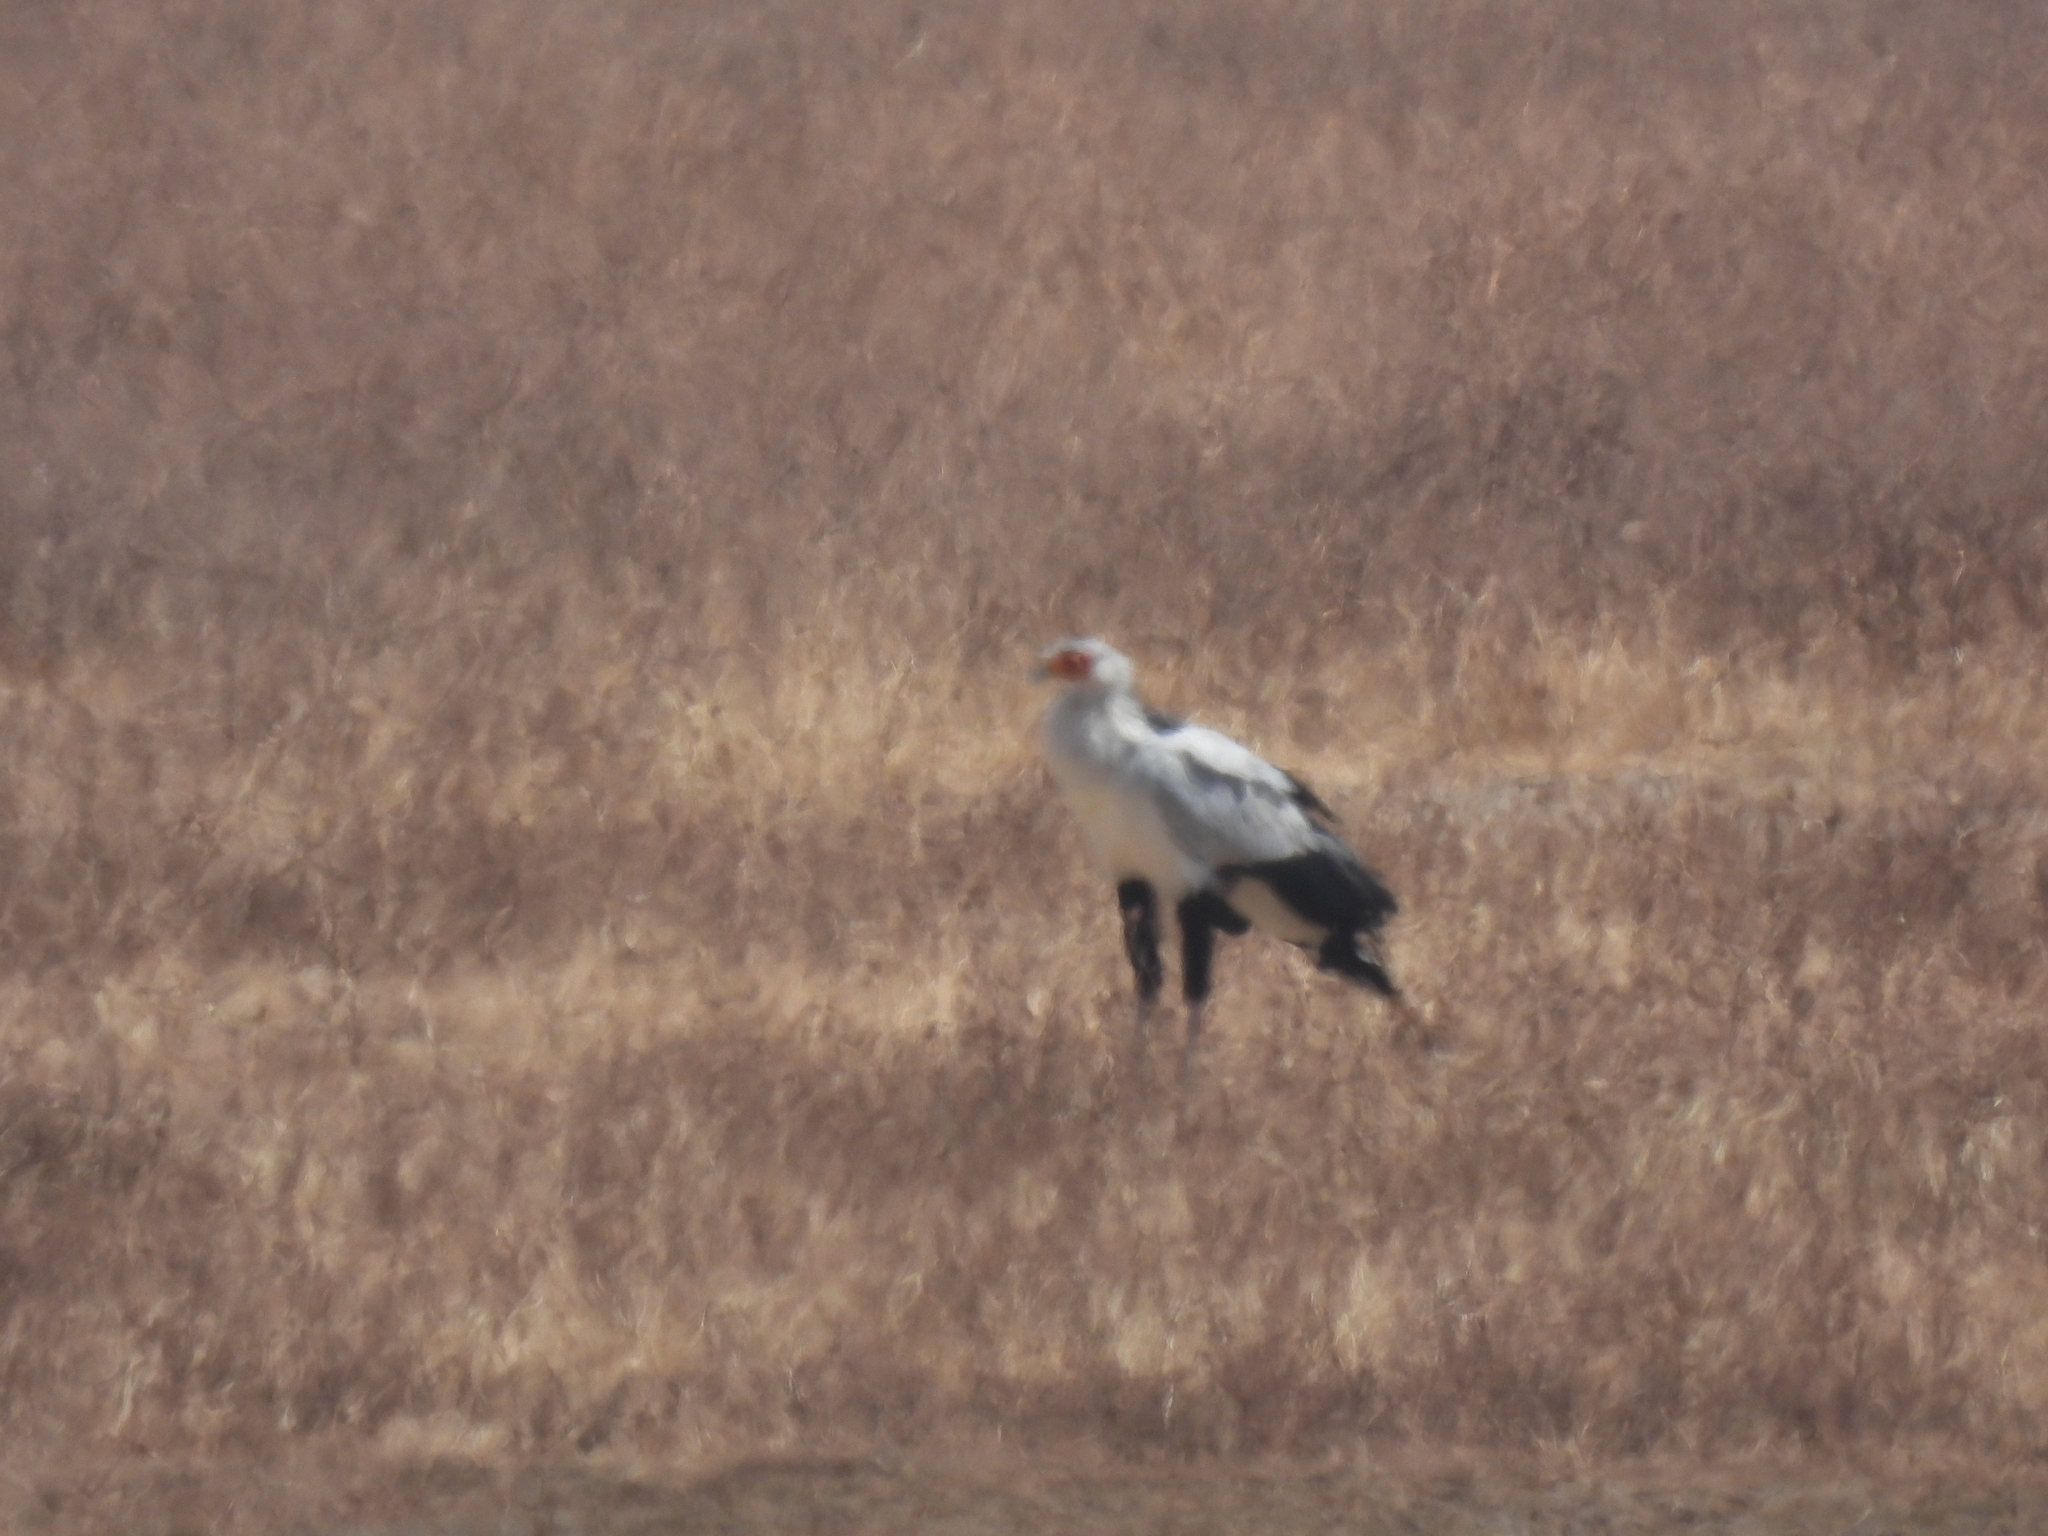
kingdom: Animalia
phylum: Chordata
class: Aves
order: Accipitriformes
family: Sagittariidae
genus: Sagittarius
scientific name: Sagittarius serpentarius
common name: Secretarybird
